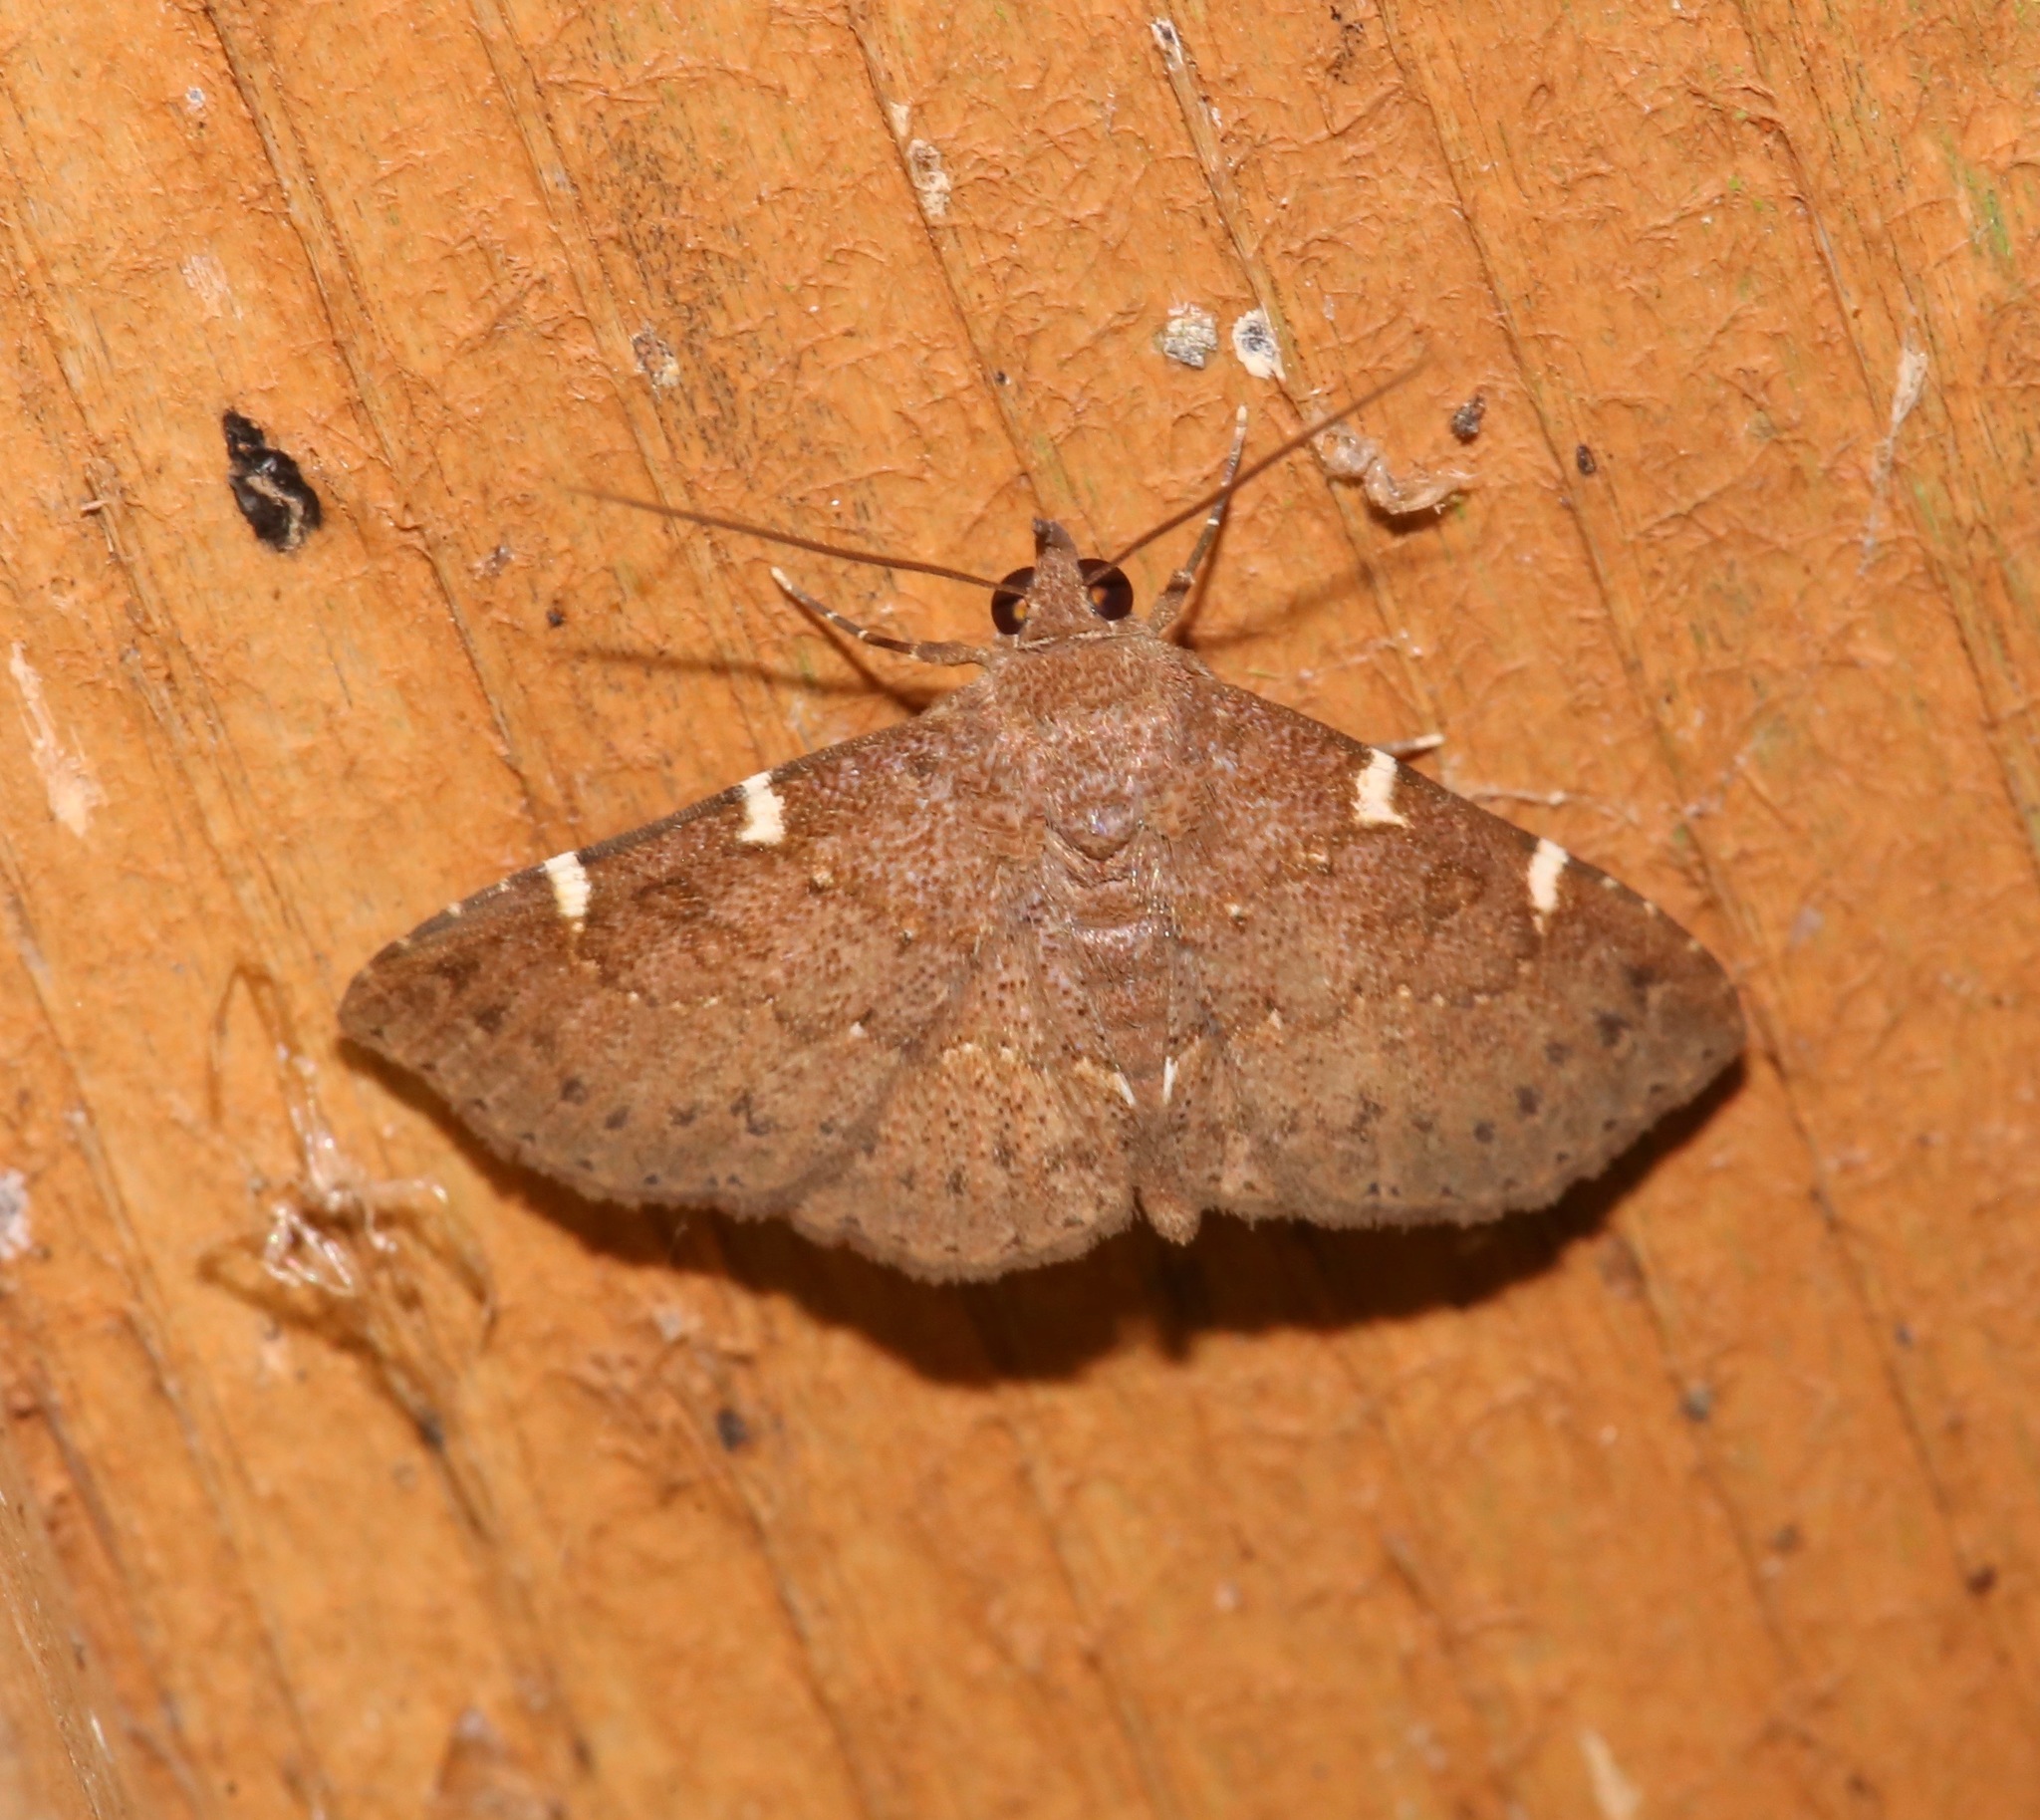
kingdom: Animalia
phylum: Arthropoda
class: Insecta
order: Lepidoptera
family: Erebidae
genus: Antiblemma
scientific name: Antiblemma perva
